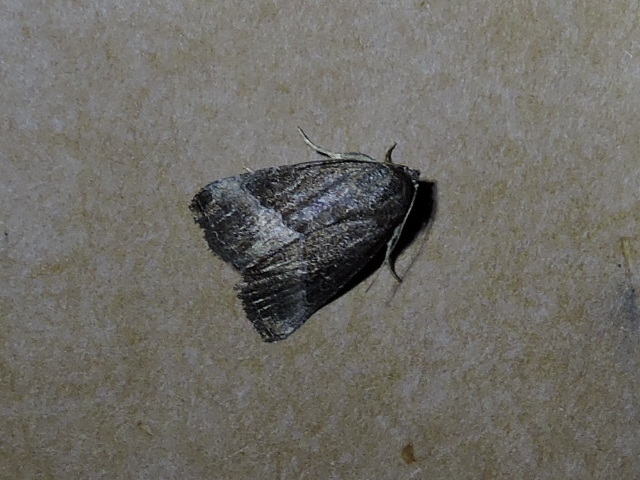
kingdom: Animalia
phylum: Arthropoda
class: Insecta
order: Lepidoptera
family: Noctuidae
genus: Ogdoconta
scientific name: Ogdoconta cinereola
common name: Common pinkband
